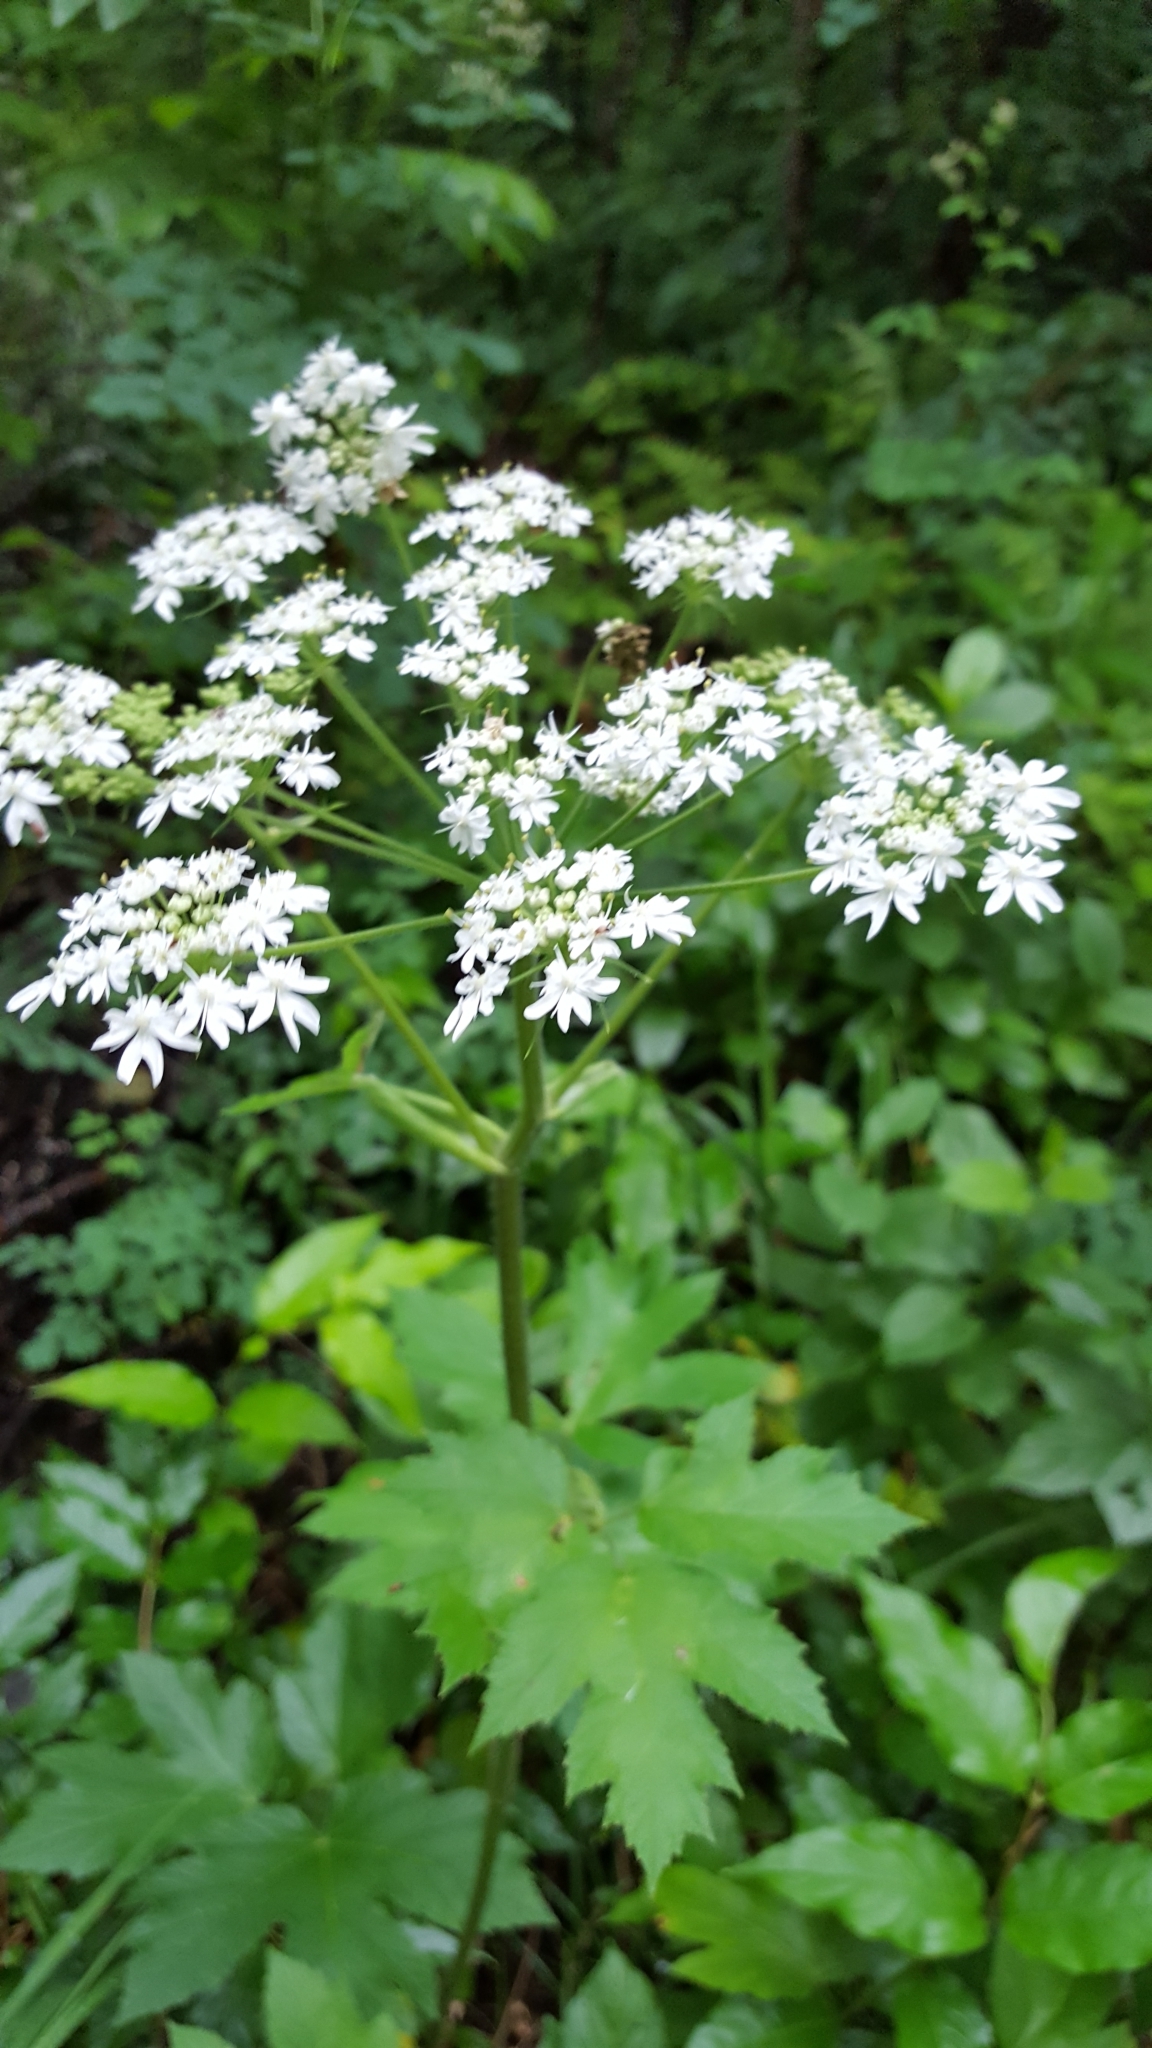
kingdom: Plantae
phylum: Tracheophyta
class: Magnoliopsida
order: Apiales
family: Apiaceae
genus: Heracleum
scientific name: Heracleum maximum
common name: American cow parsnip
